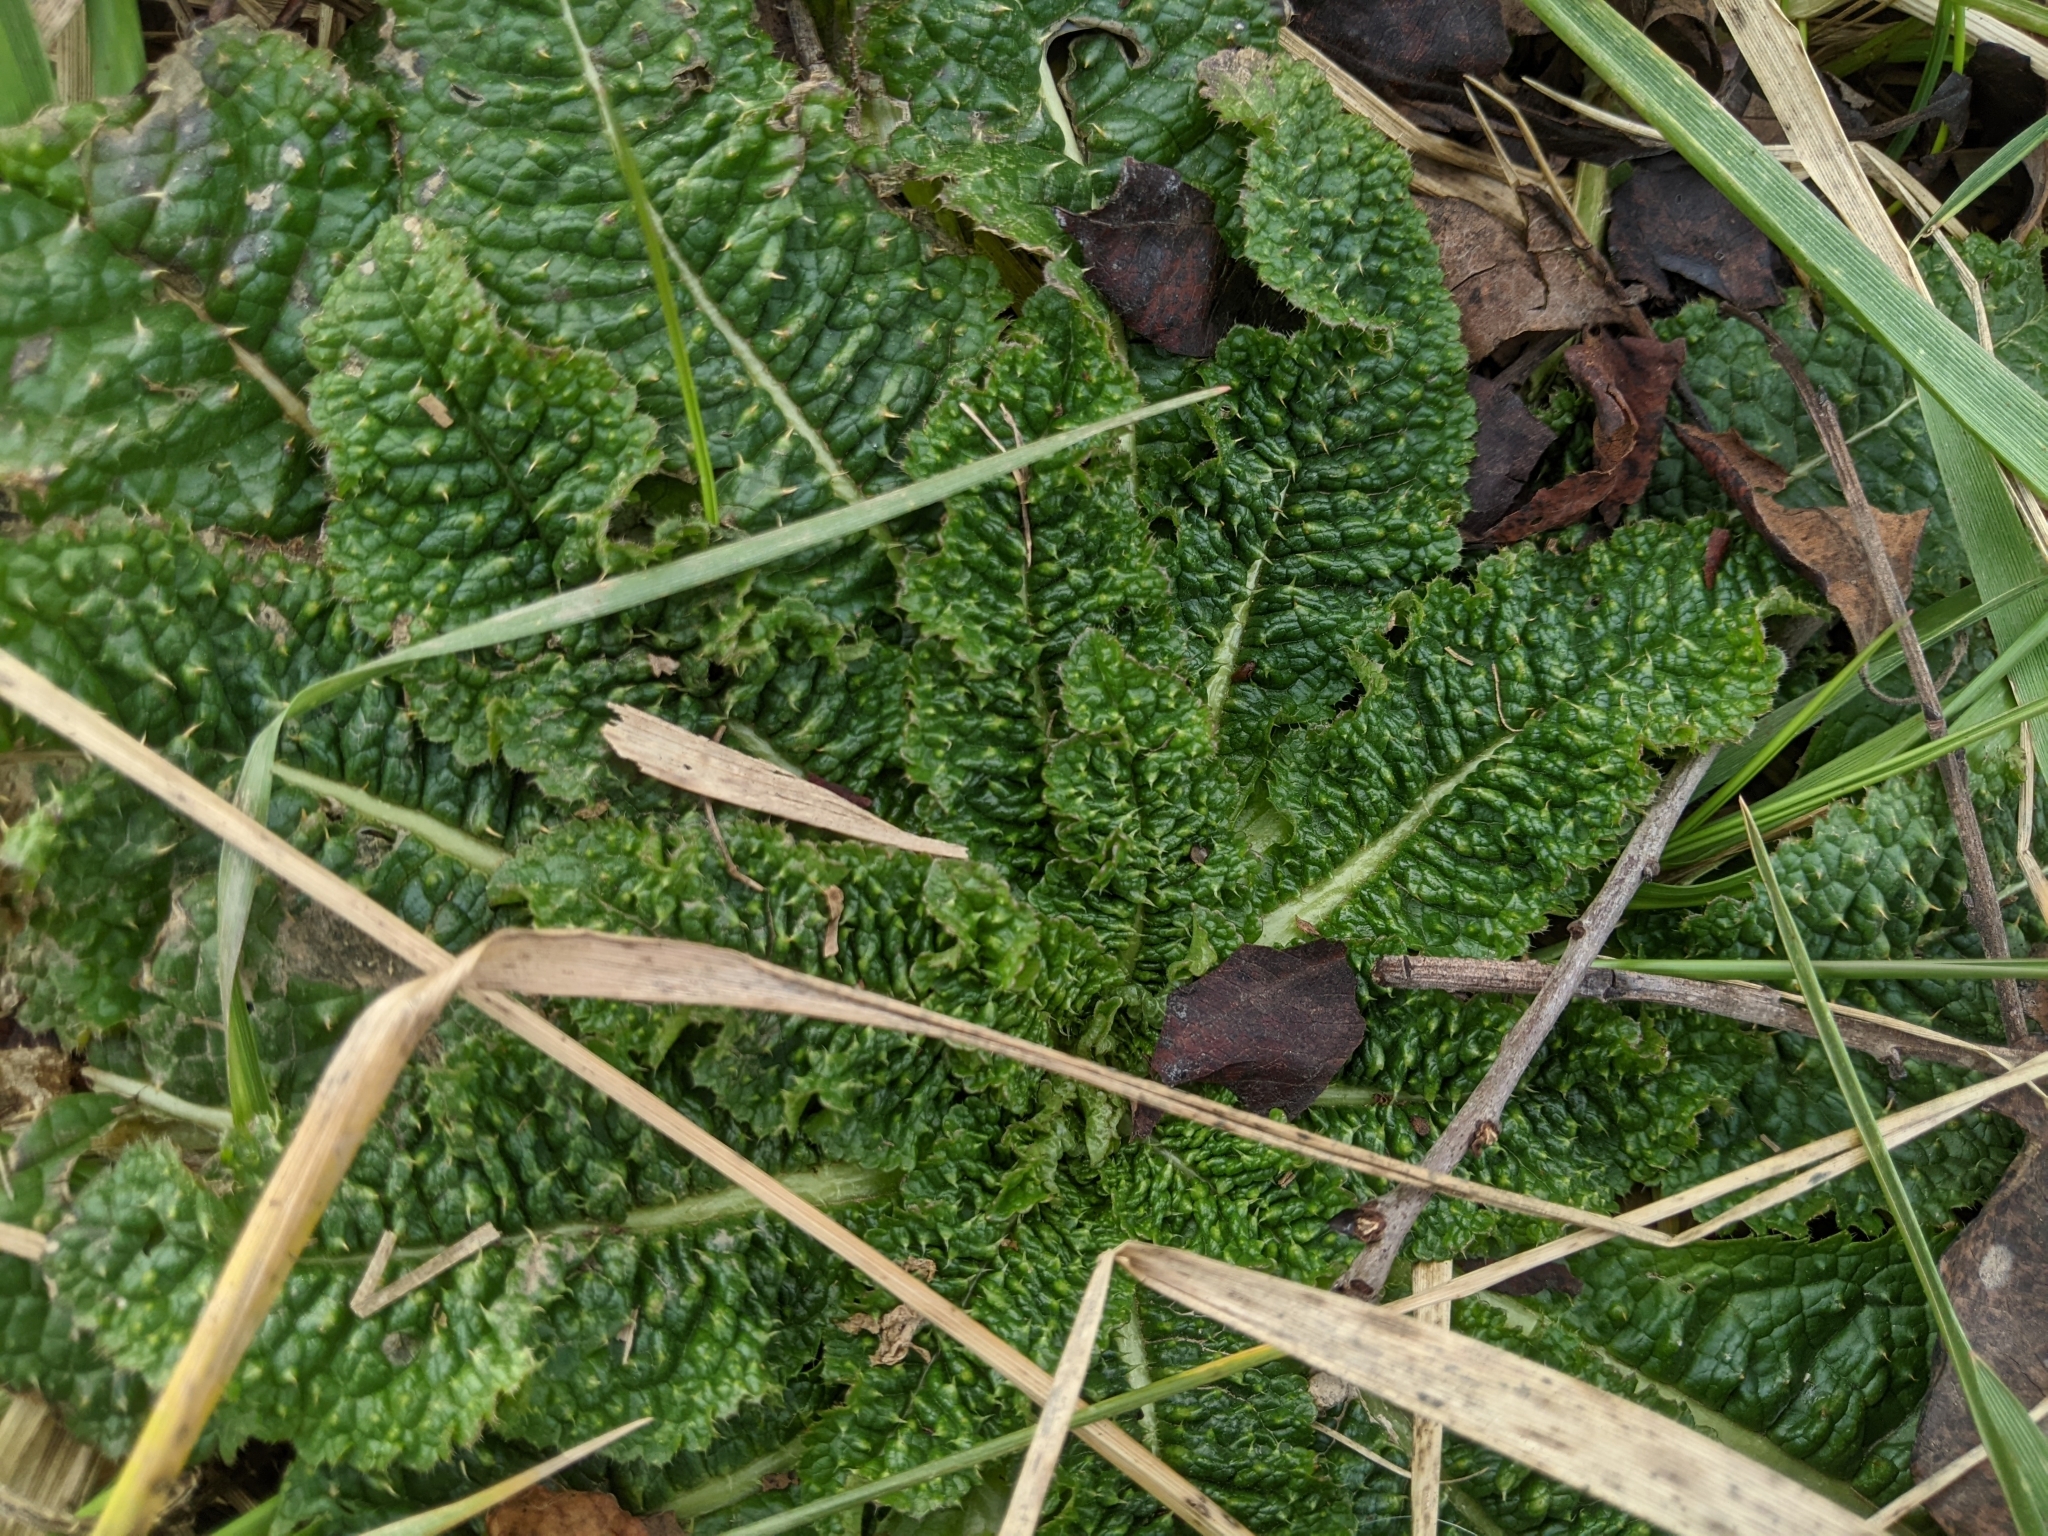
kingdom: Plantae
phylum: Tracheophyta
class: Magnoliopsida
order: Dipsacales
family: Caprifoliaceae
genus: Dipsacus
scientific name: Dipsacus fullonum
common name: Teasel
